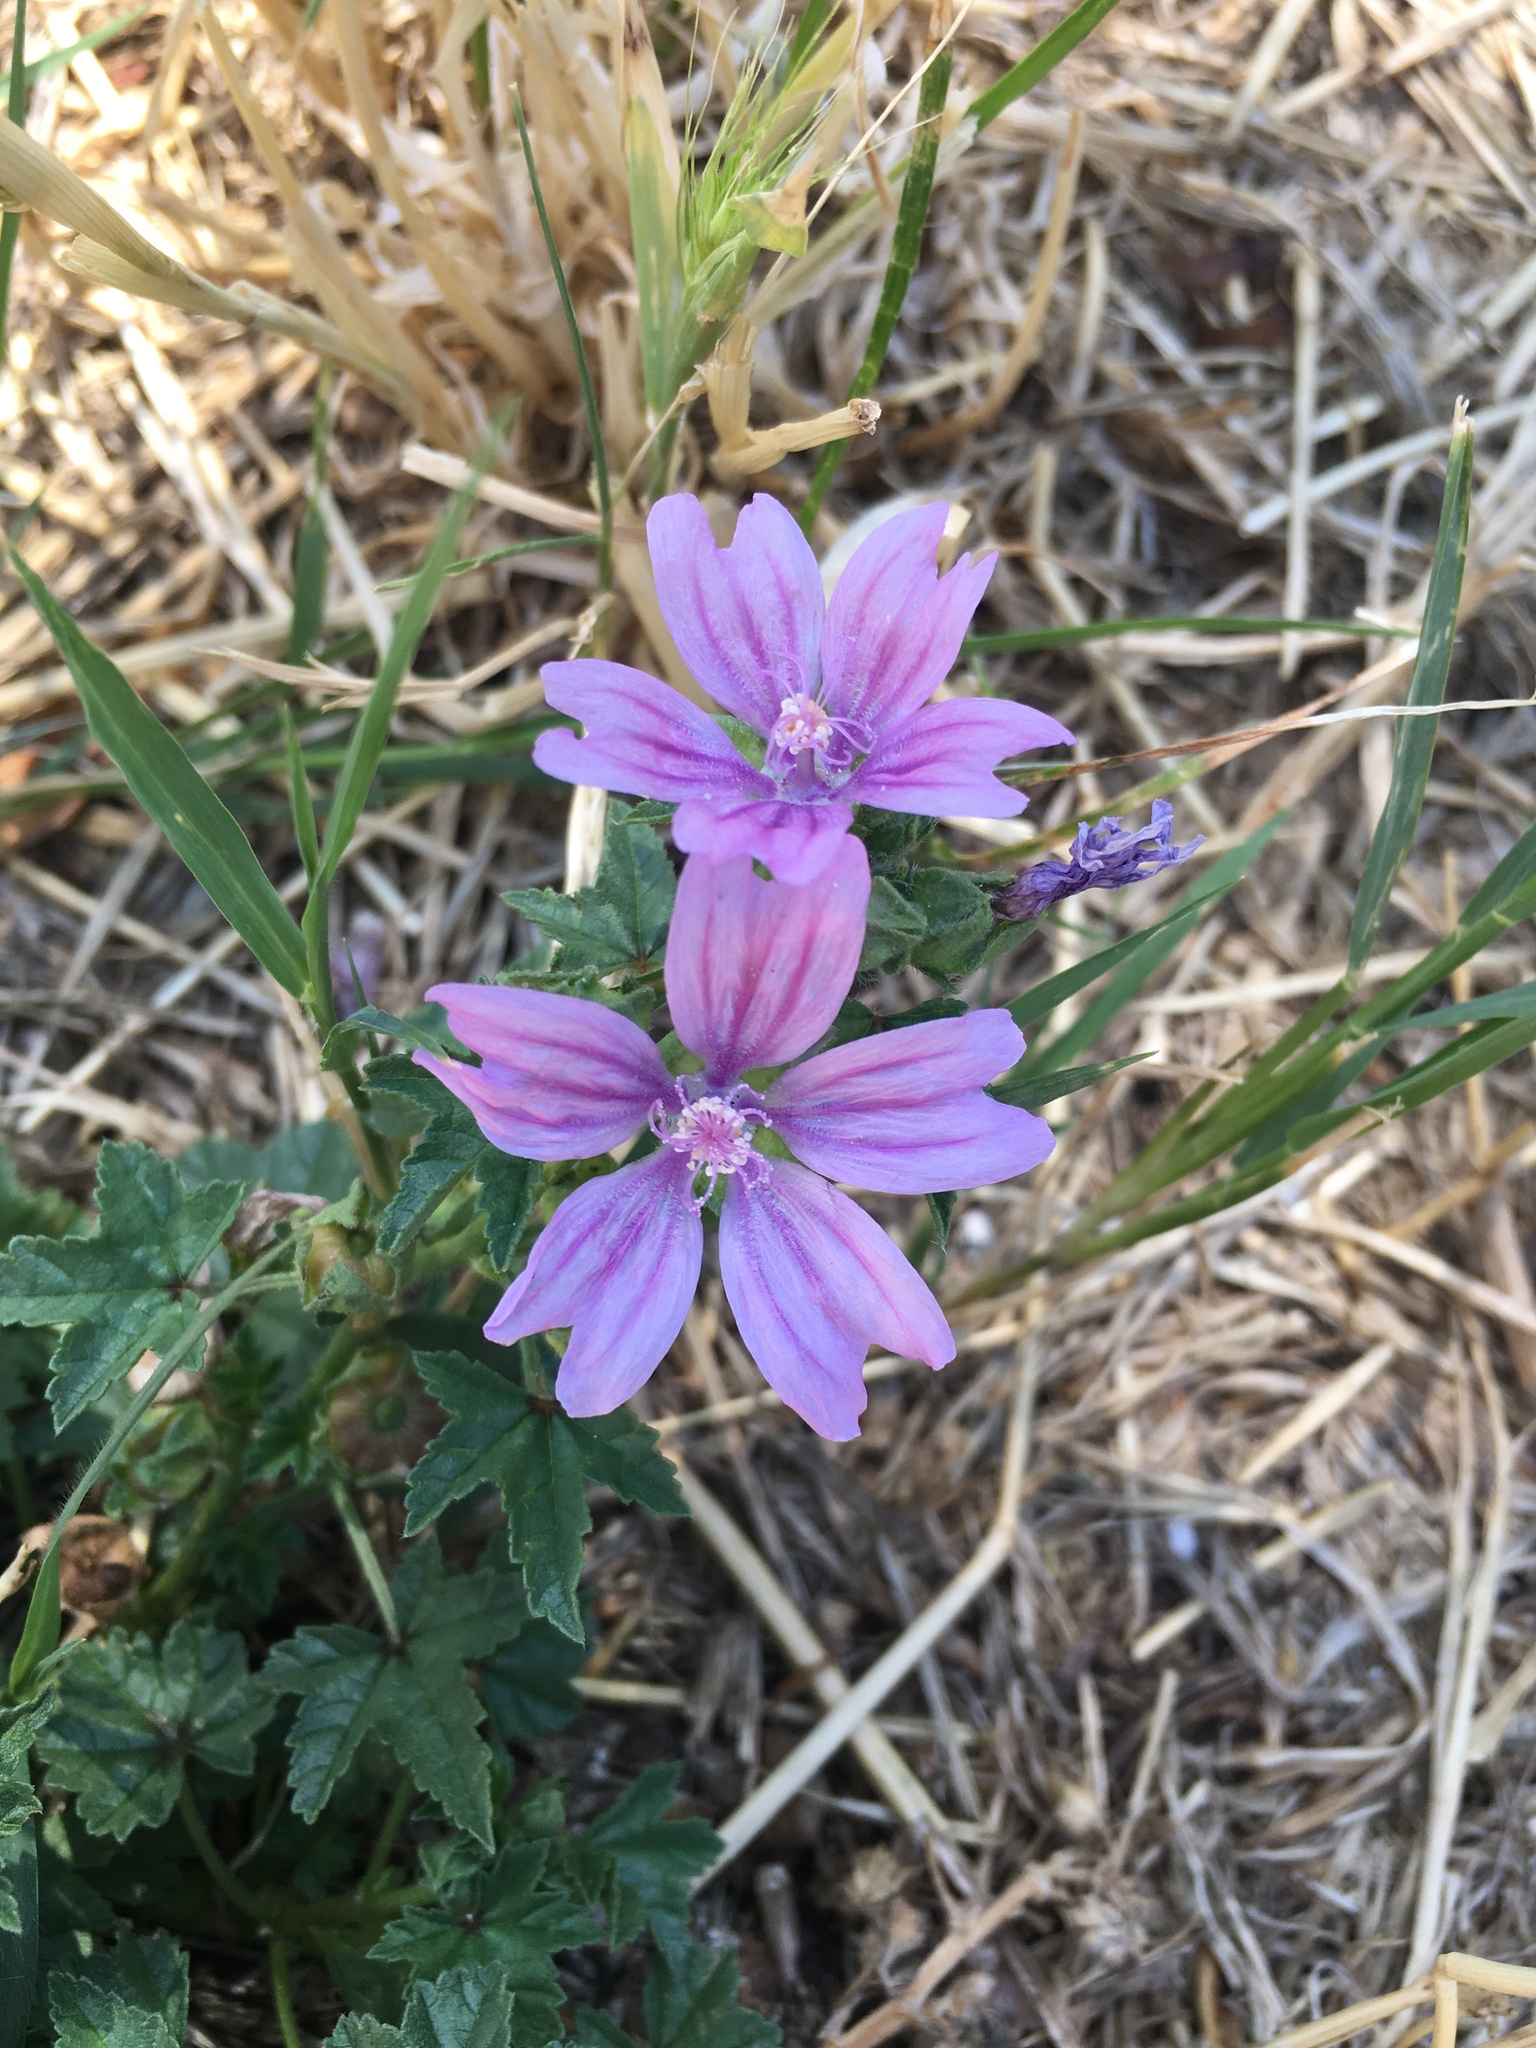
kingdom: Plantae
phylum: Tracheophyta
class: Magnoliopsida
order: Malvales
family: Malvaceae
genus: Malva
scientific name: Malva sylvestris
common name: Common mallow
